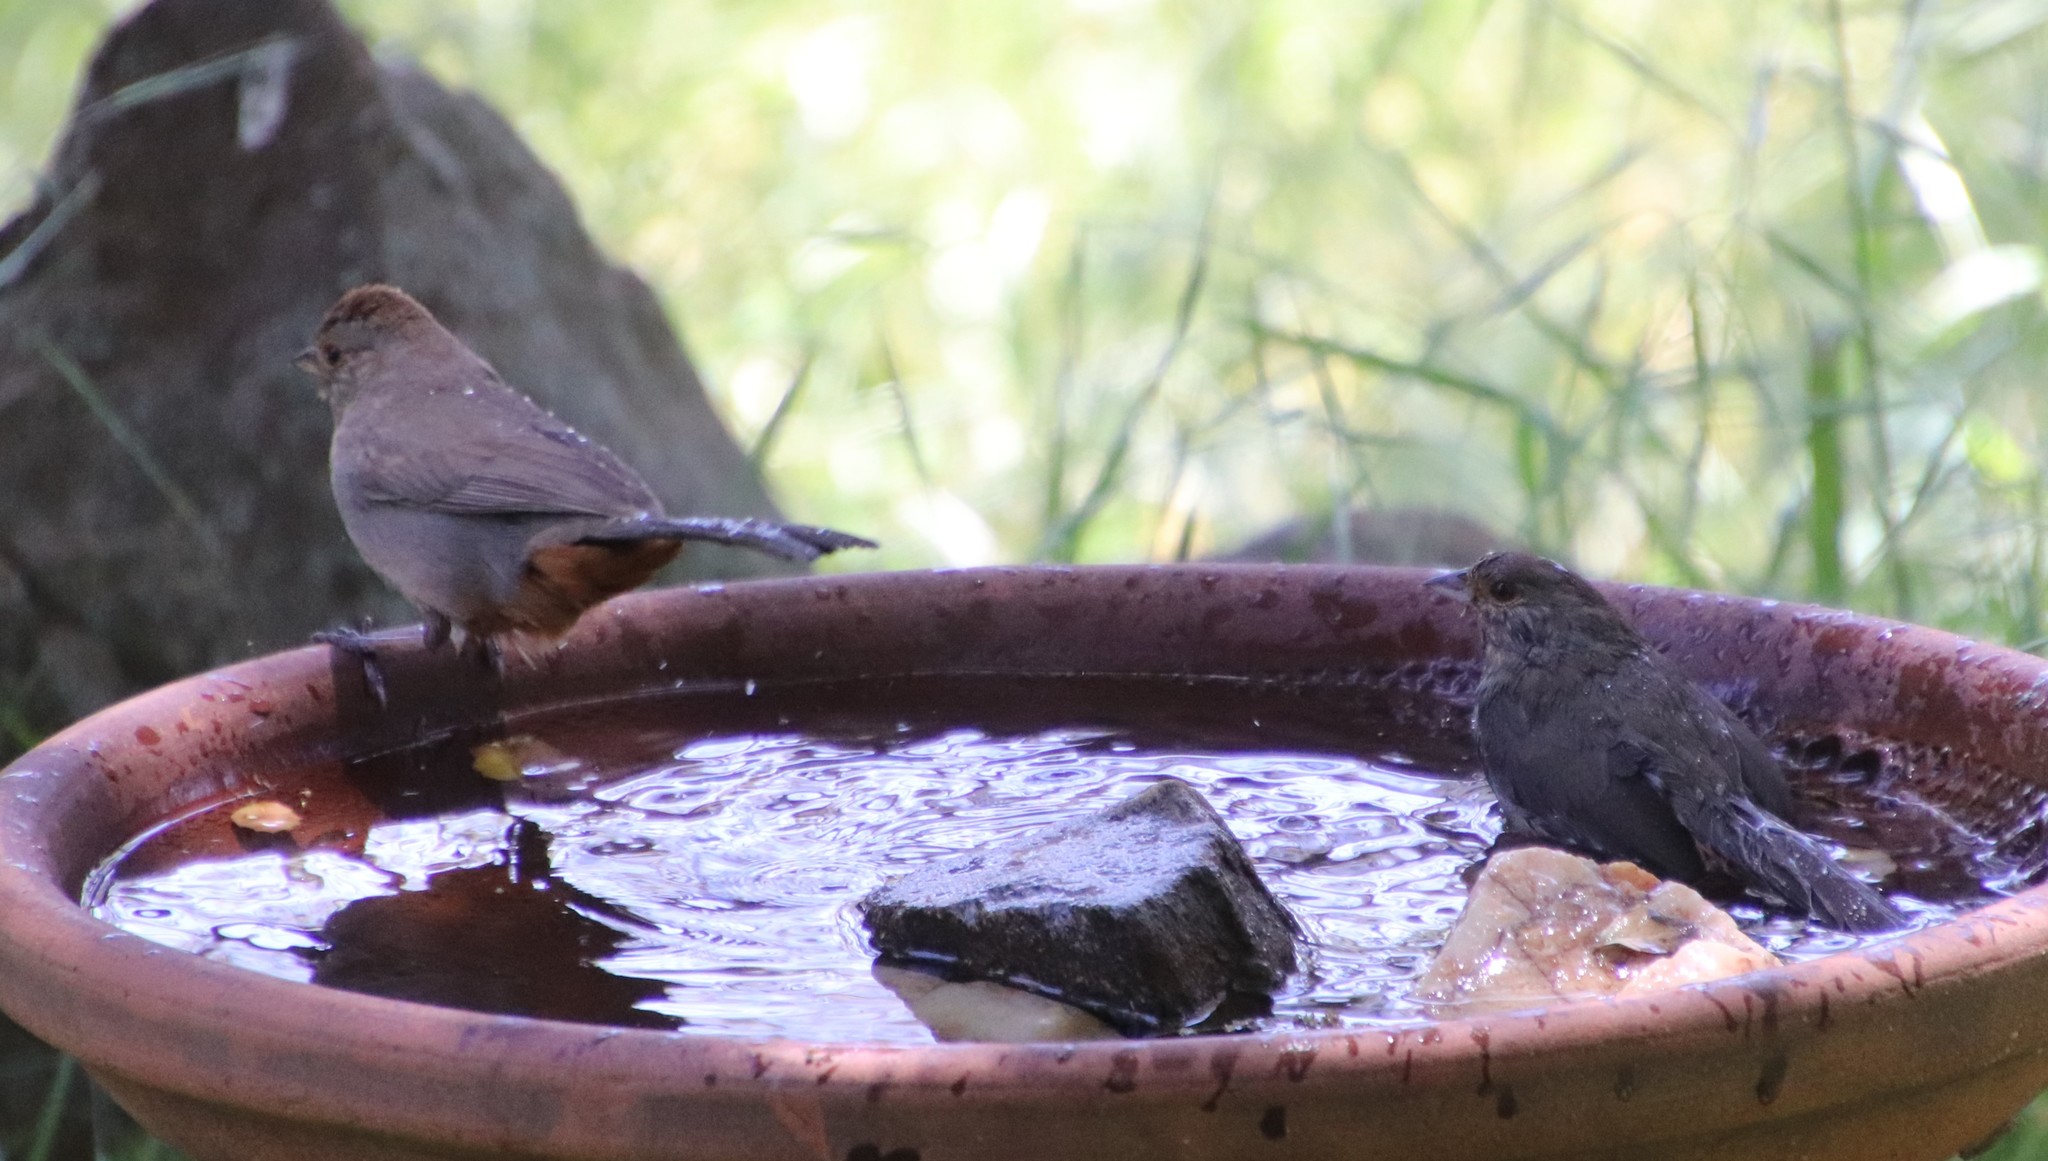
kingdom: Animalia
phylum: Chordata
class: Aves
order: Passeriformes
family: Passerellidae
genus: Melozone
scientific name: Melozone crissalis
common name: California towhee
